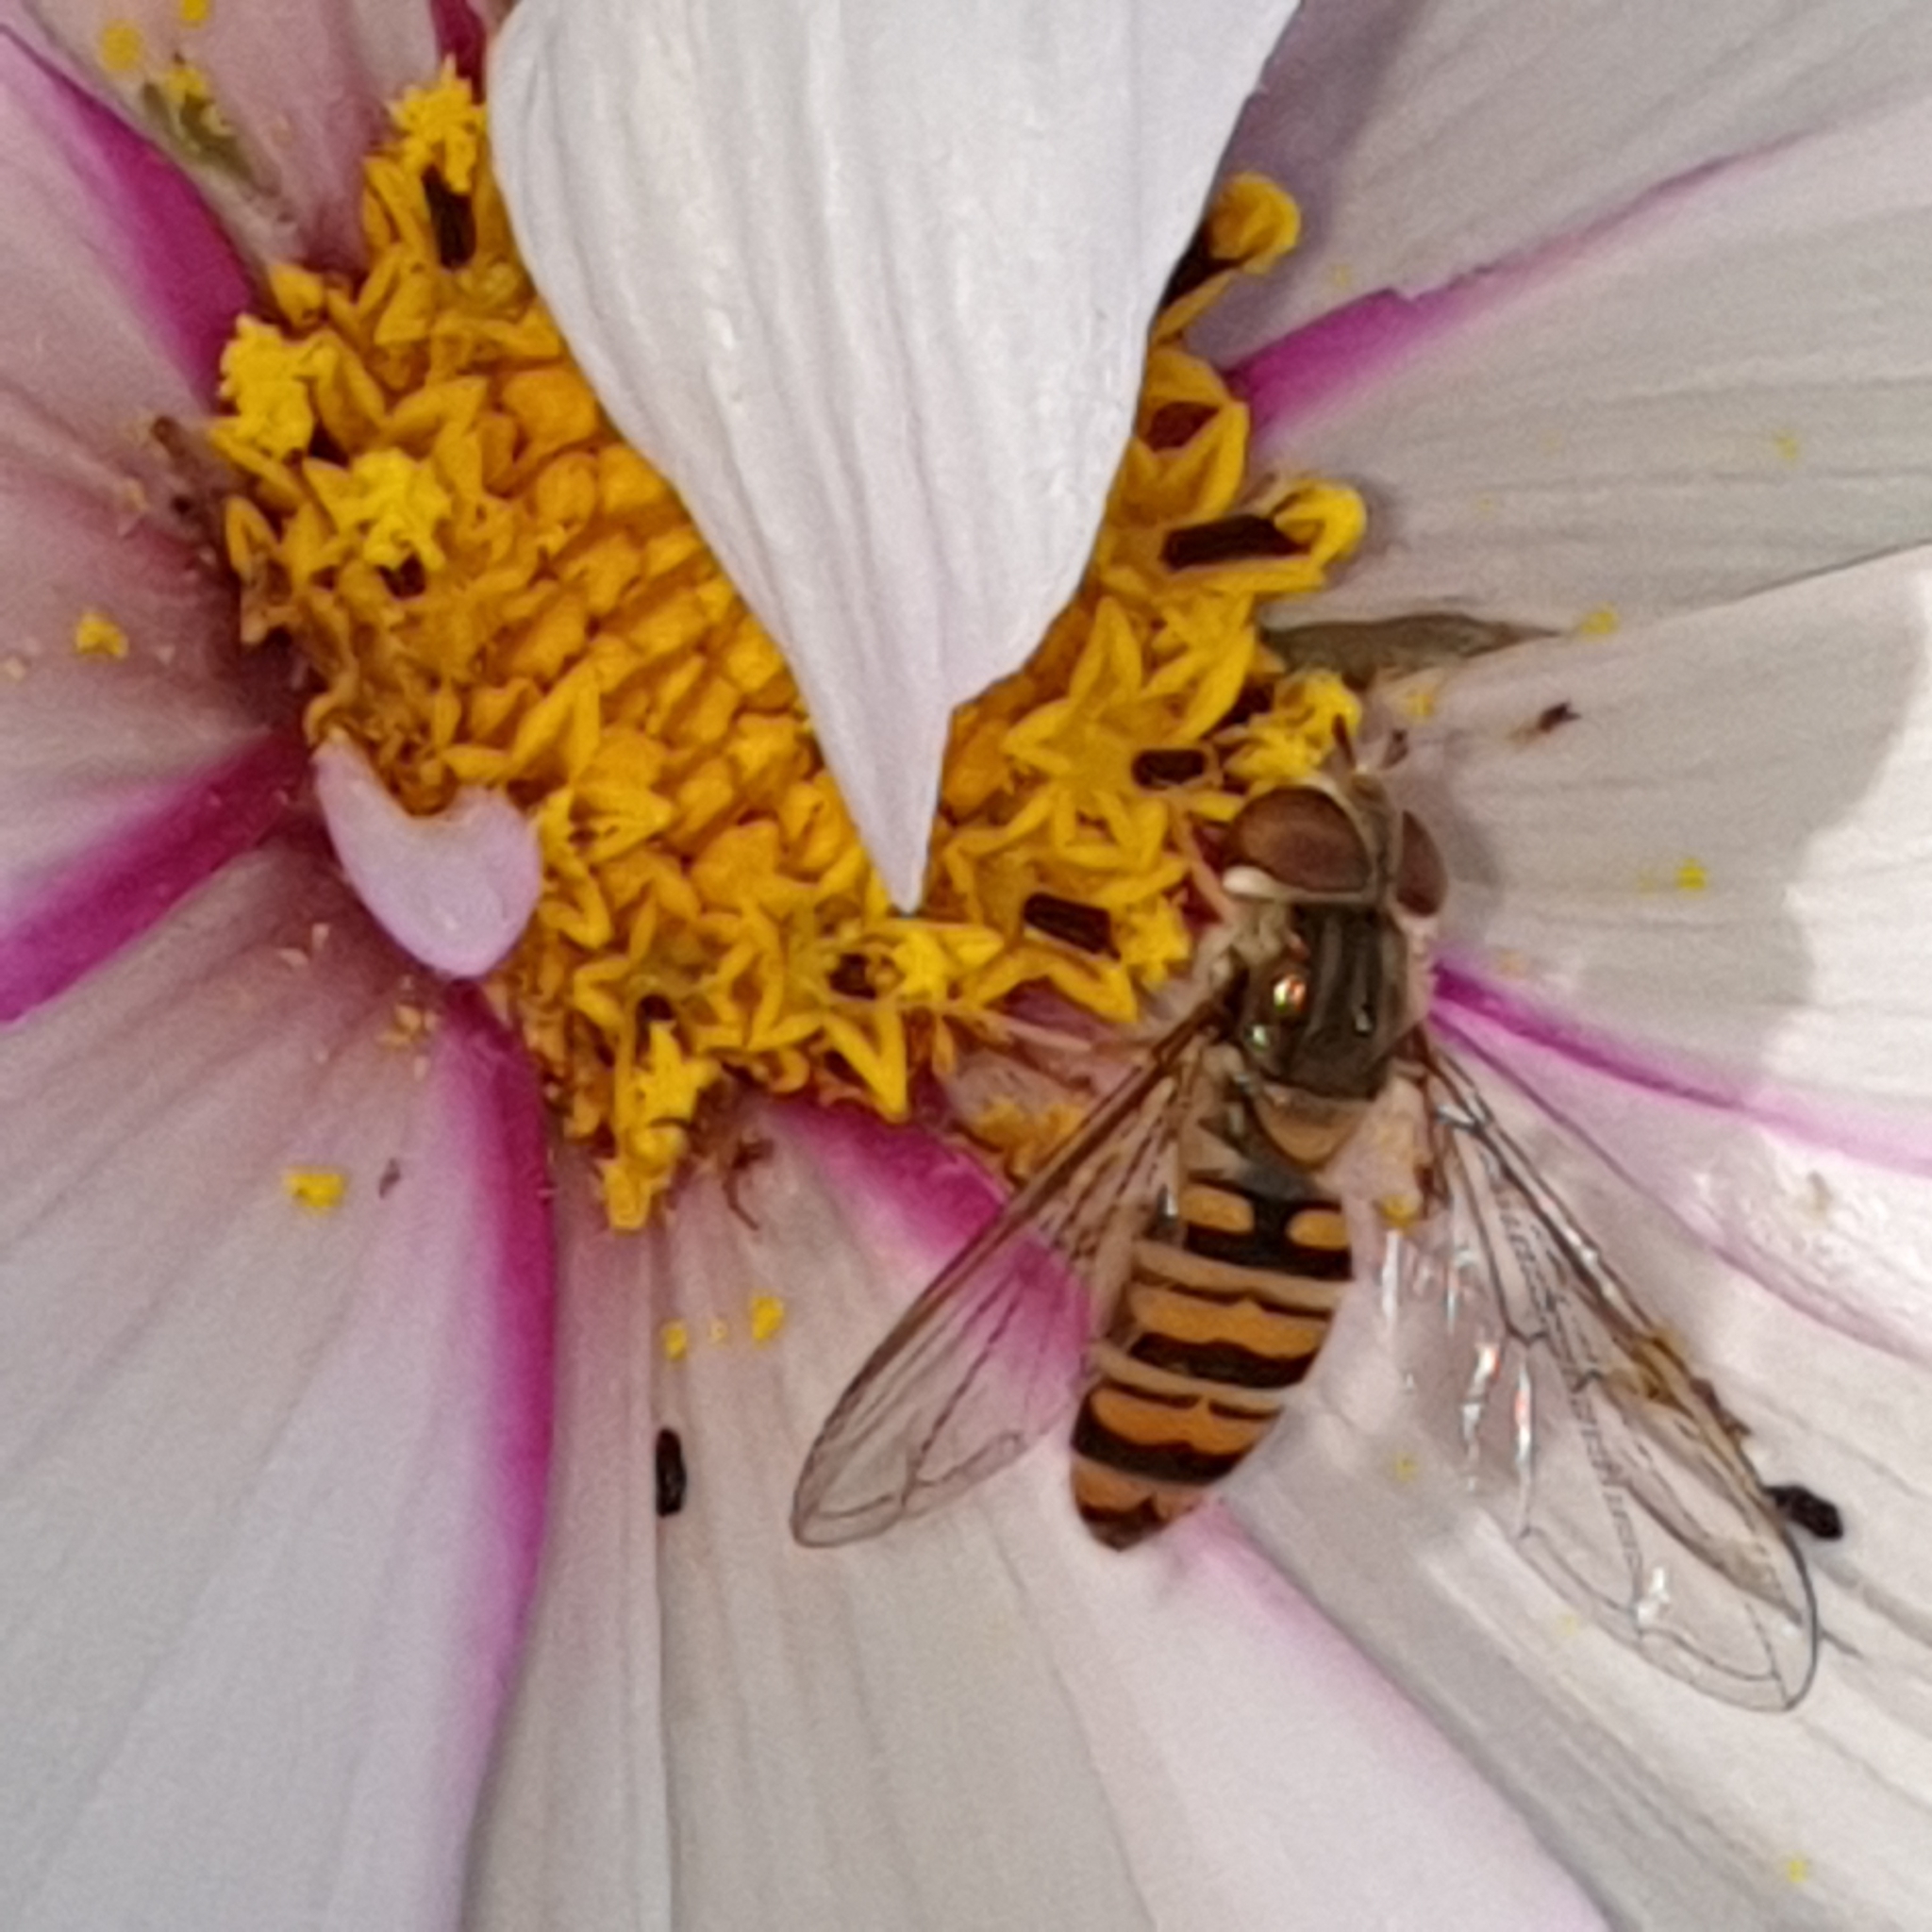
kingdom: Animalia
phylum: Arthropoda
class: Insecta
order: Diptera
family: Syrphidae
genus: Episyrphus
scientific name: Episyrphus balteatus
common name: Marmalade hoverfly
